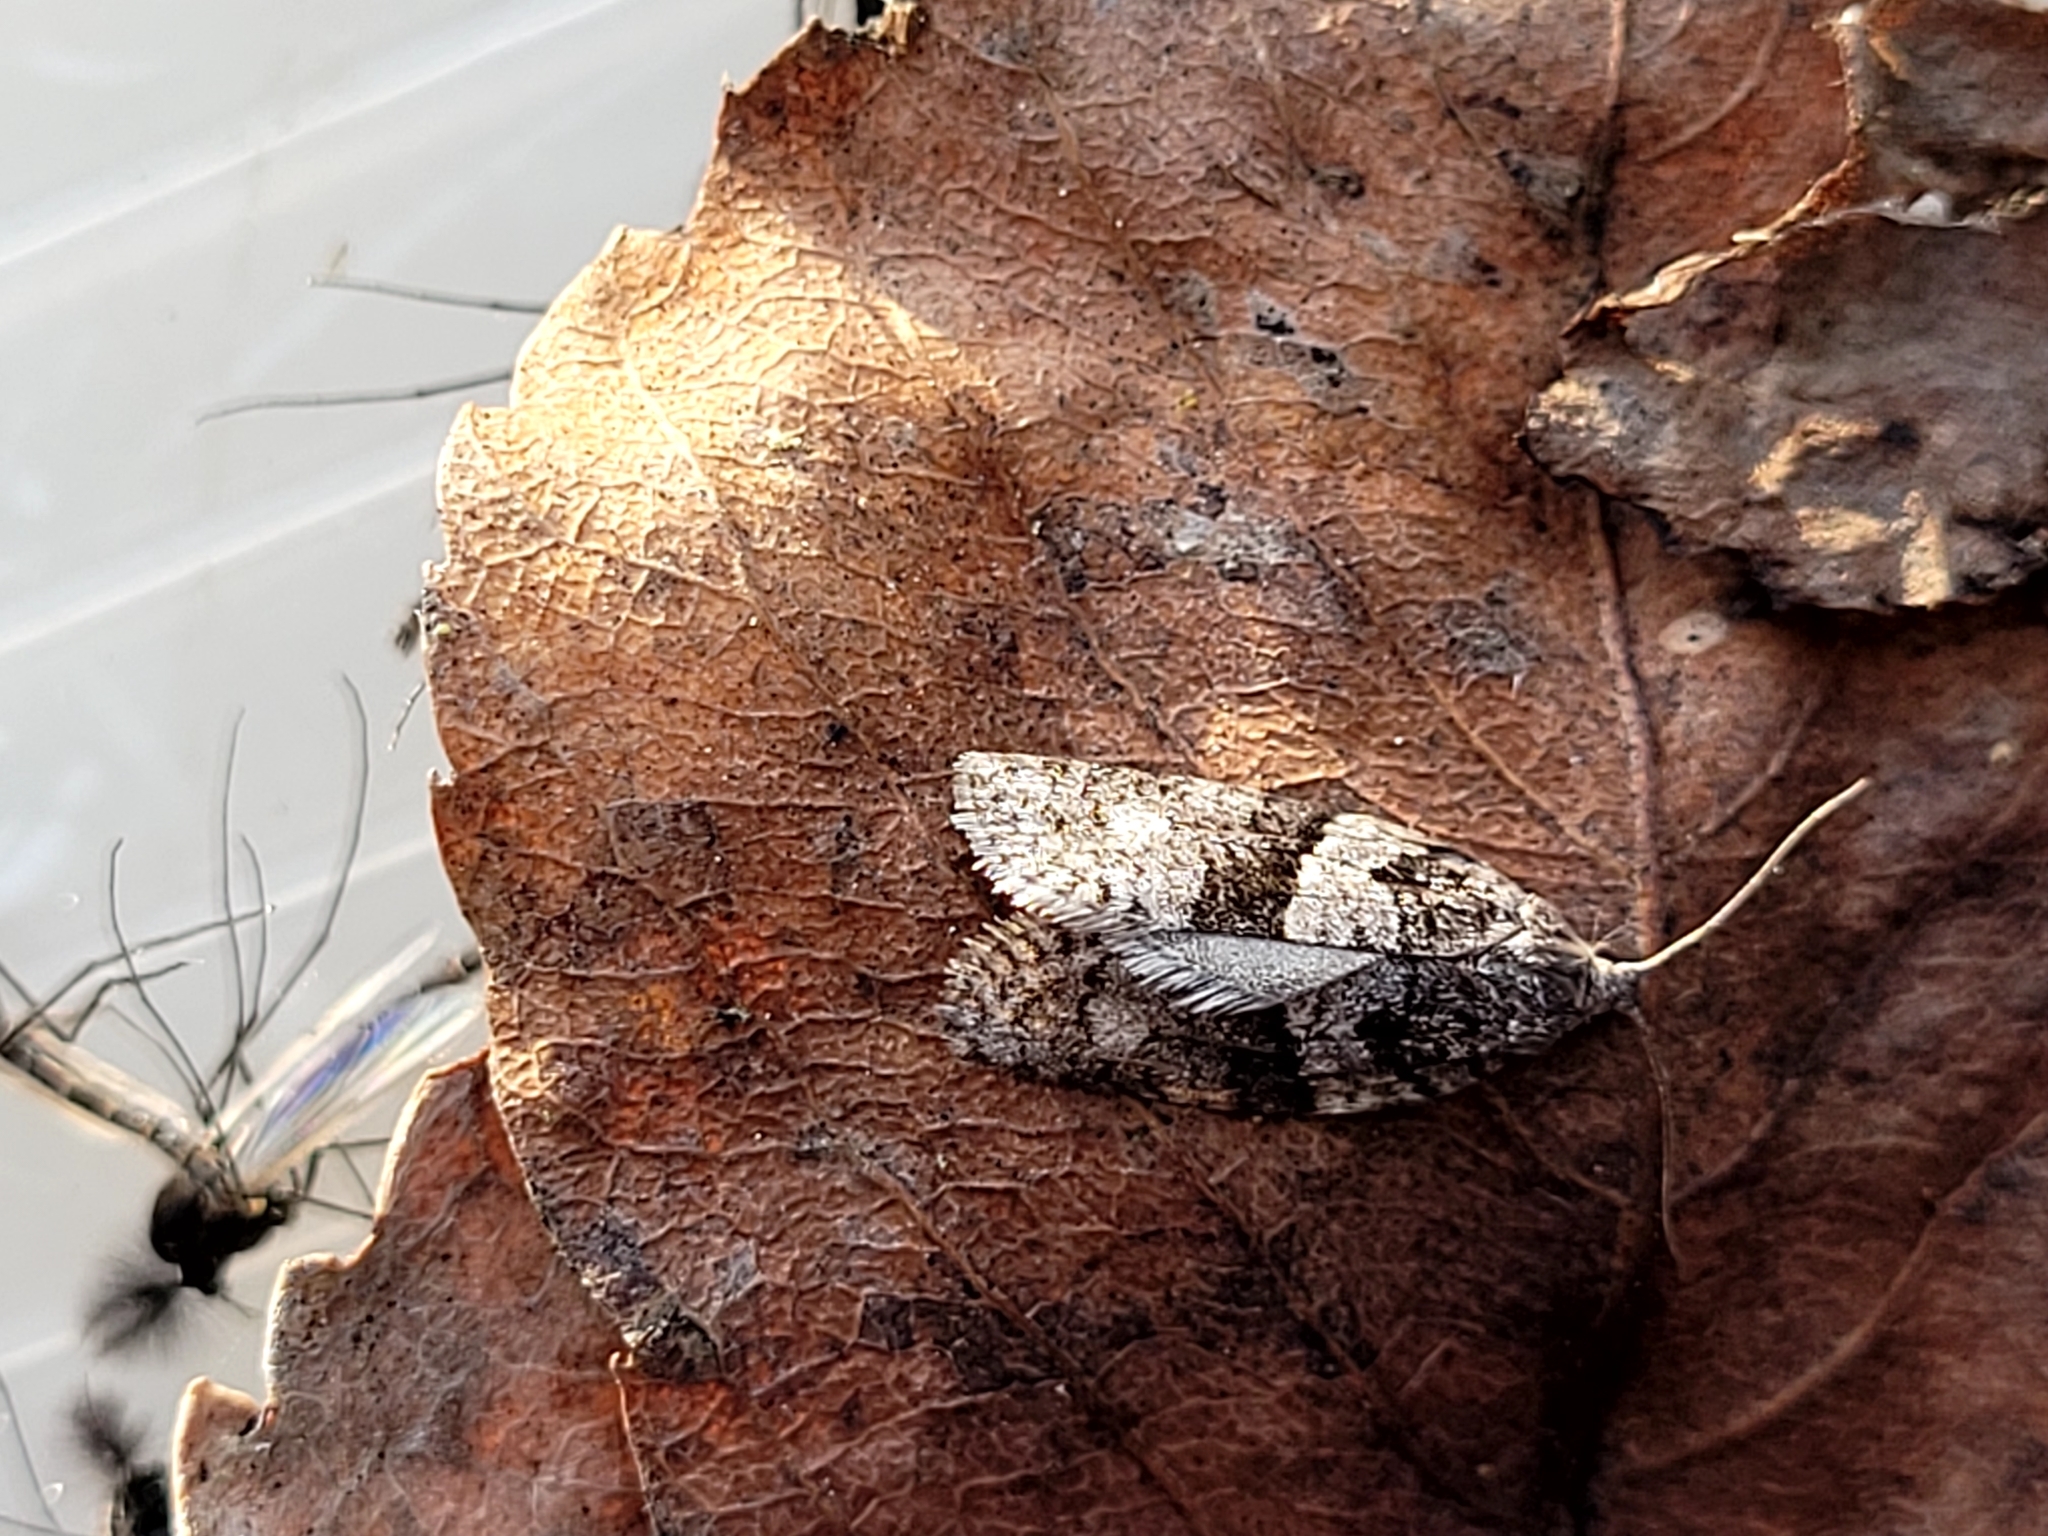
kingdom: Animalia
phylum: Arthropoda
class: Insecta
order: Lepidoptera
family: Tortricidae
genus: Syndemis
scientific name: Syndemis afflictana
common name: Gray leafroller moth
